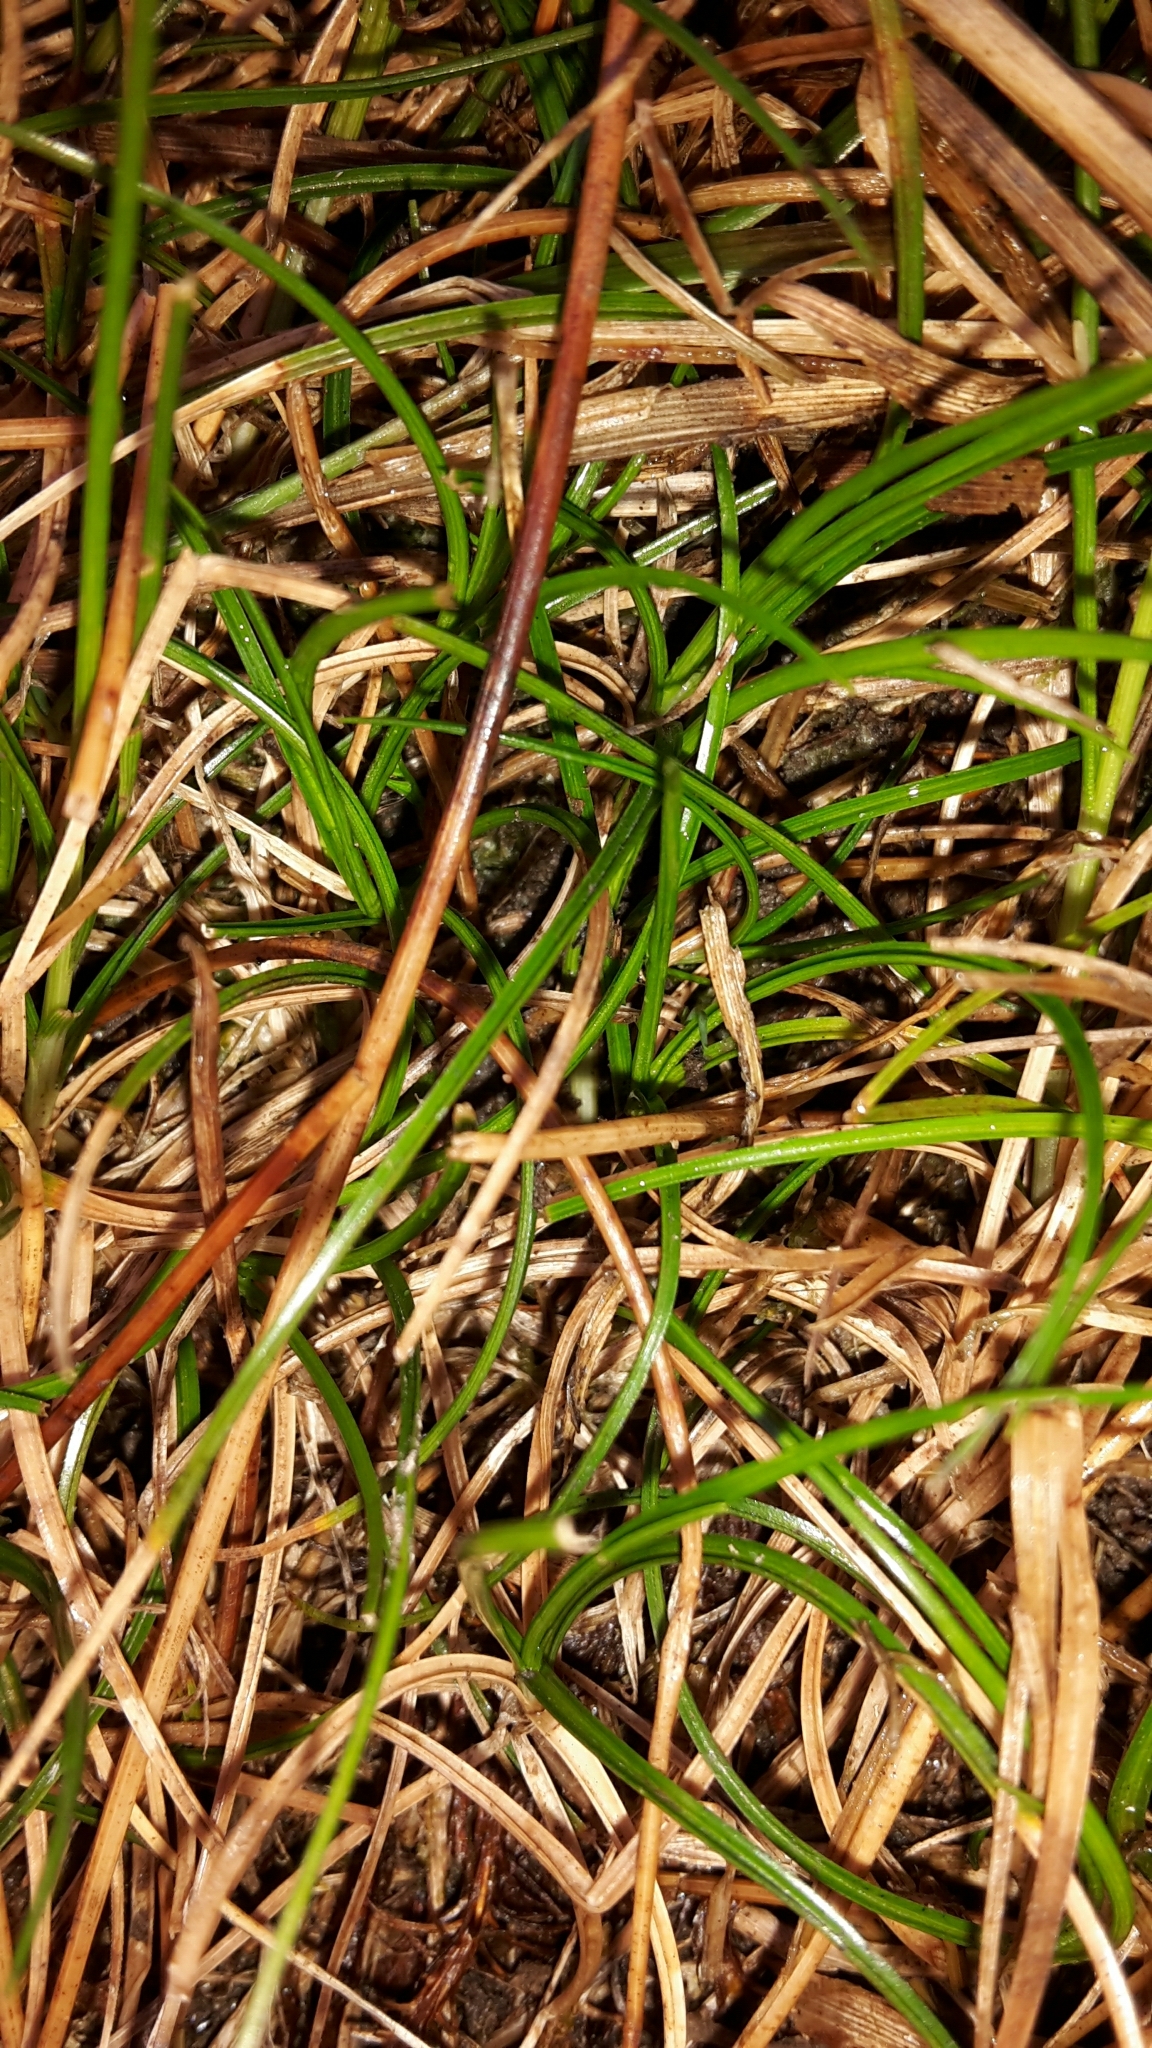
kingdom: Plantae
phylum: Tracheophyta
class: Liliopsida
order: Poales
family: Cyperaceae
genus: Carex
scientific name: Carex drucei
